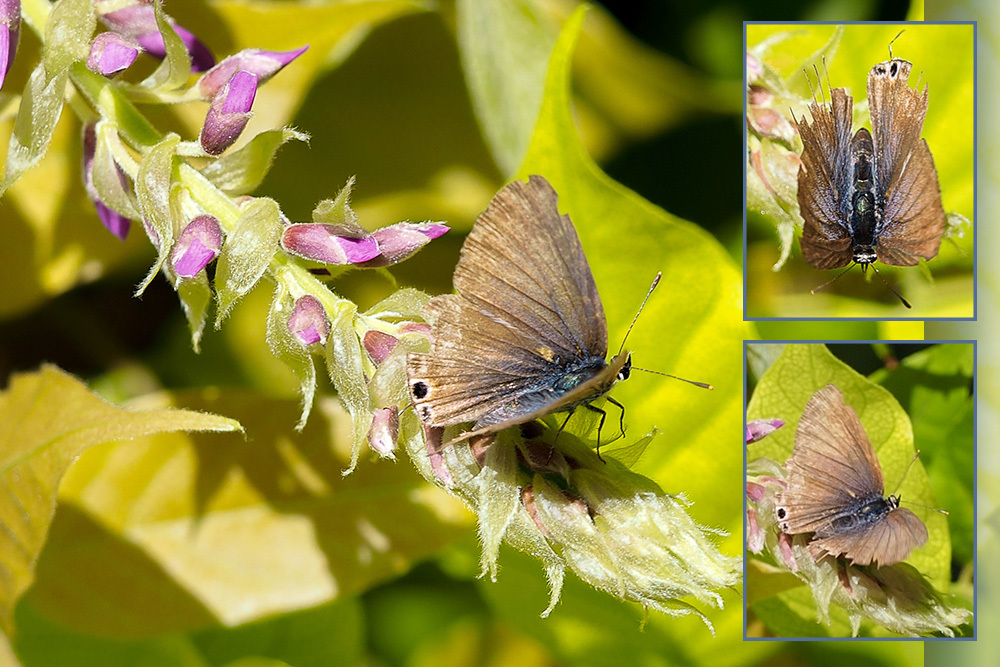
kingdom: Animalia
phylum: Arthropoda
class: Insecta
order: Lepidoptera
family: Lycaenidae
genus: Lampides
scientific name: Lampides boeticus
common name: Long-tailed blue
